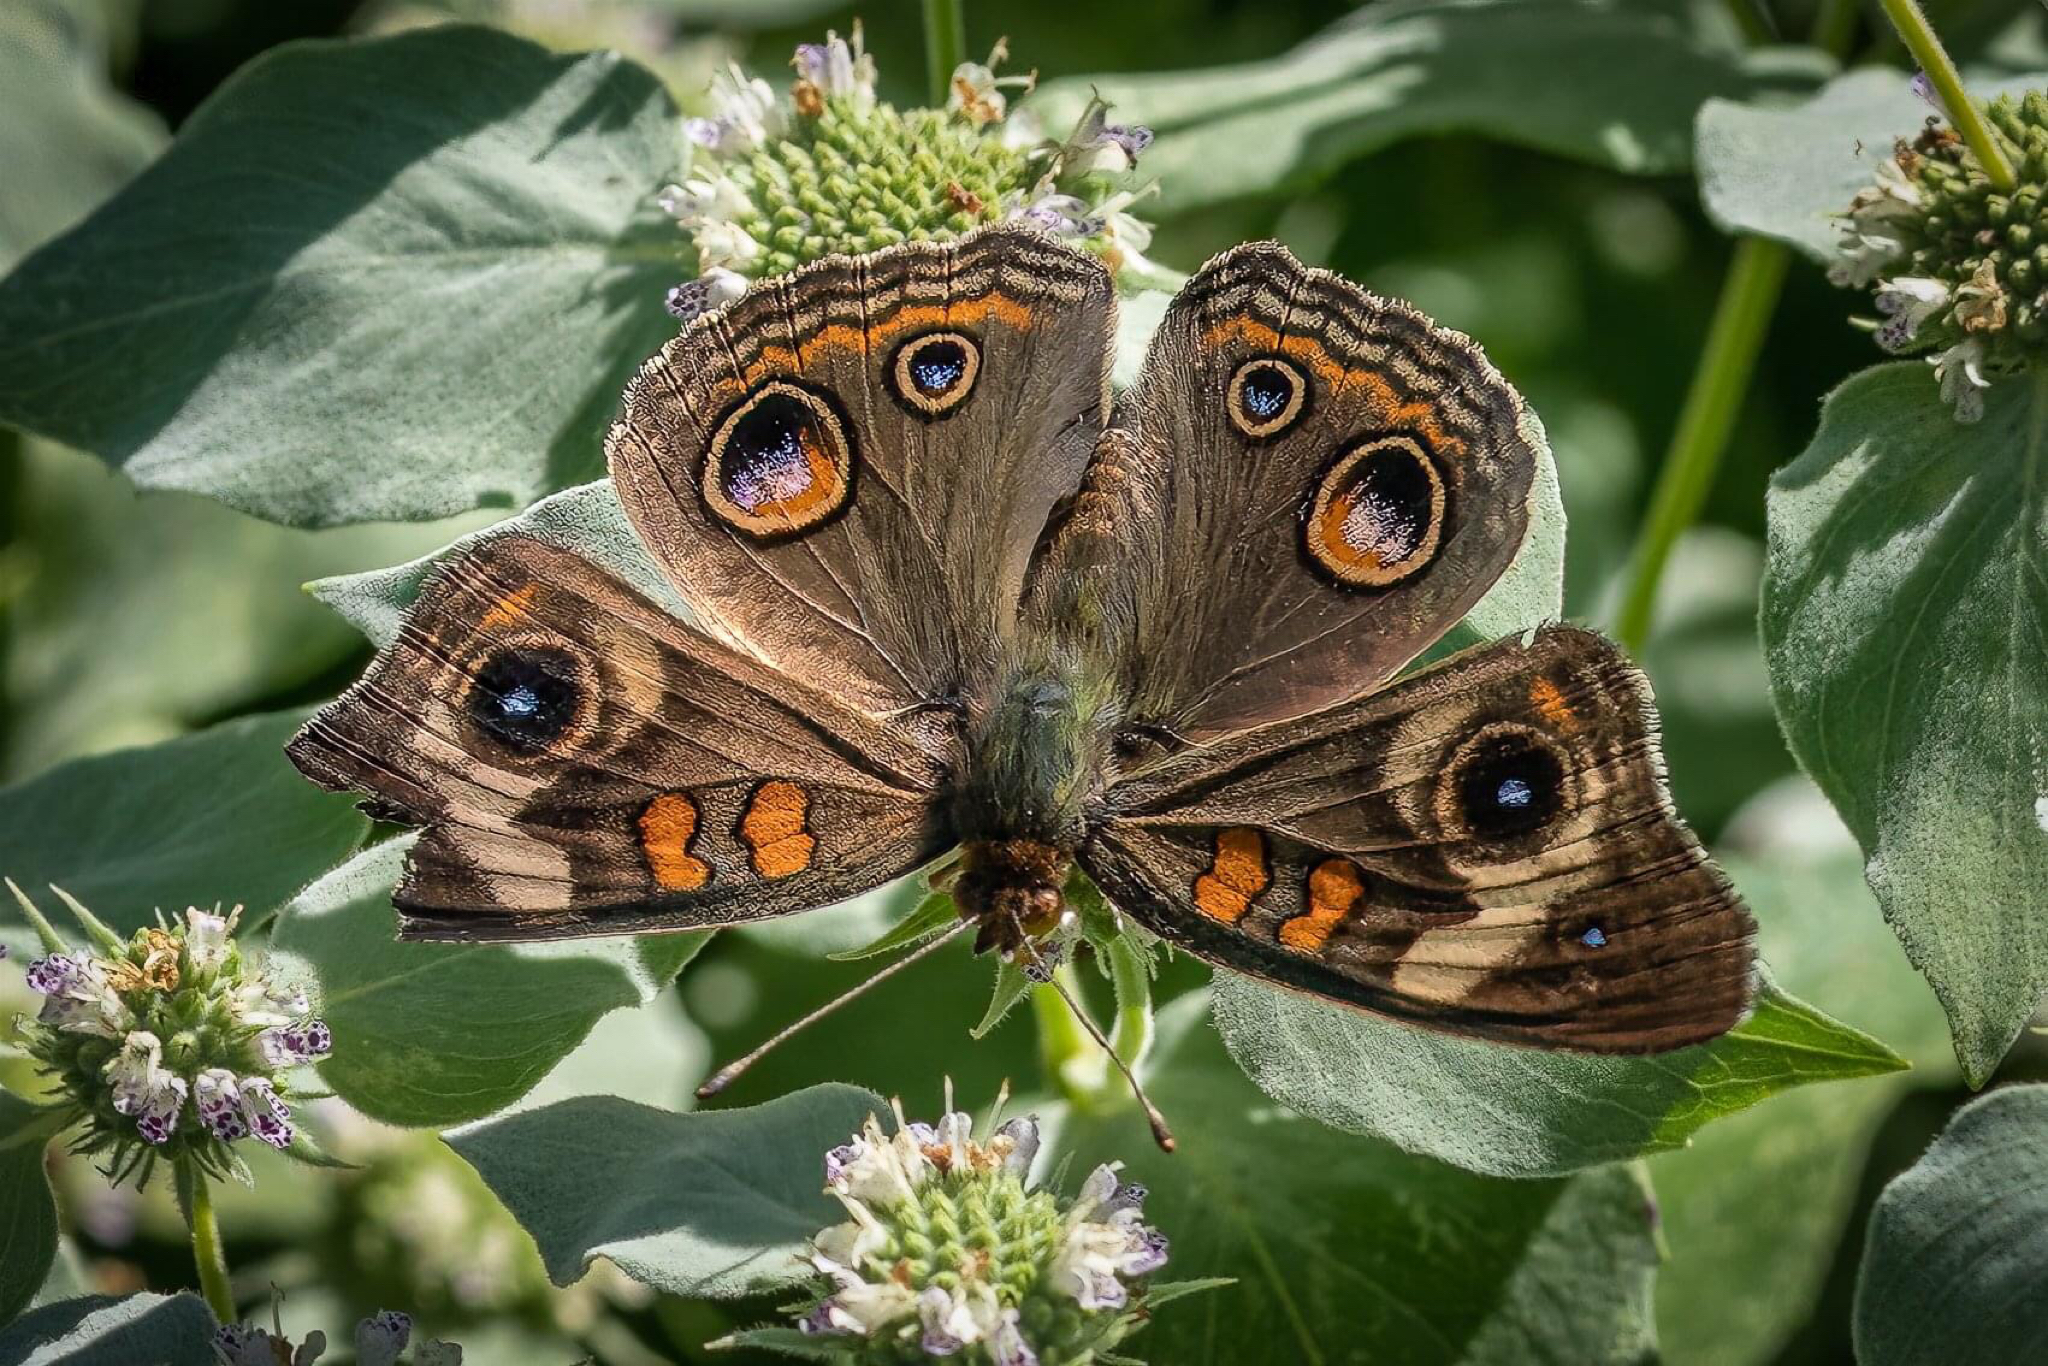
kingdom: Animalia
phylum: Arthropoda
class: Insecta
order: Lepidoptera
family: Nymphalidae
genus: Junonia
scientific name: Junonia coenia
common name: Common buckeye
